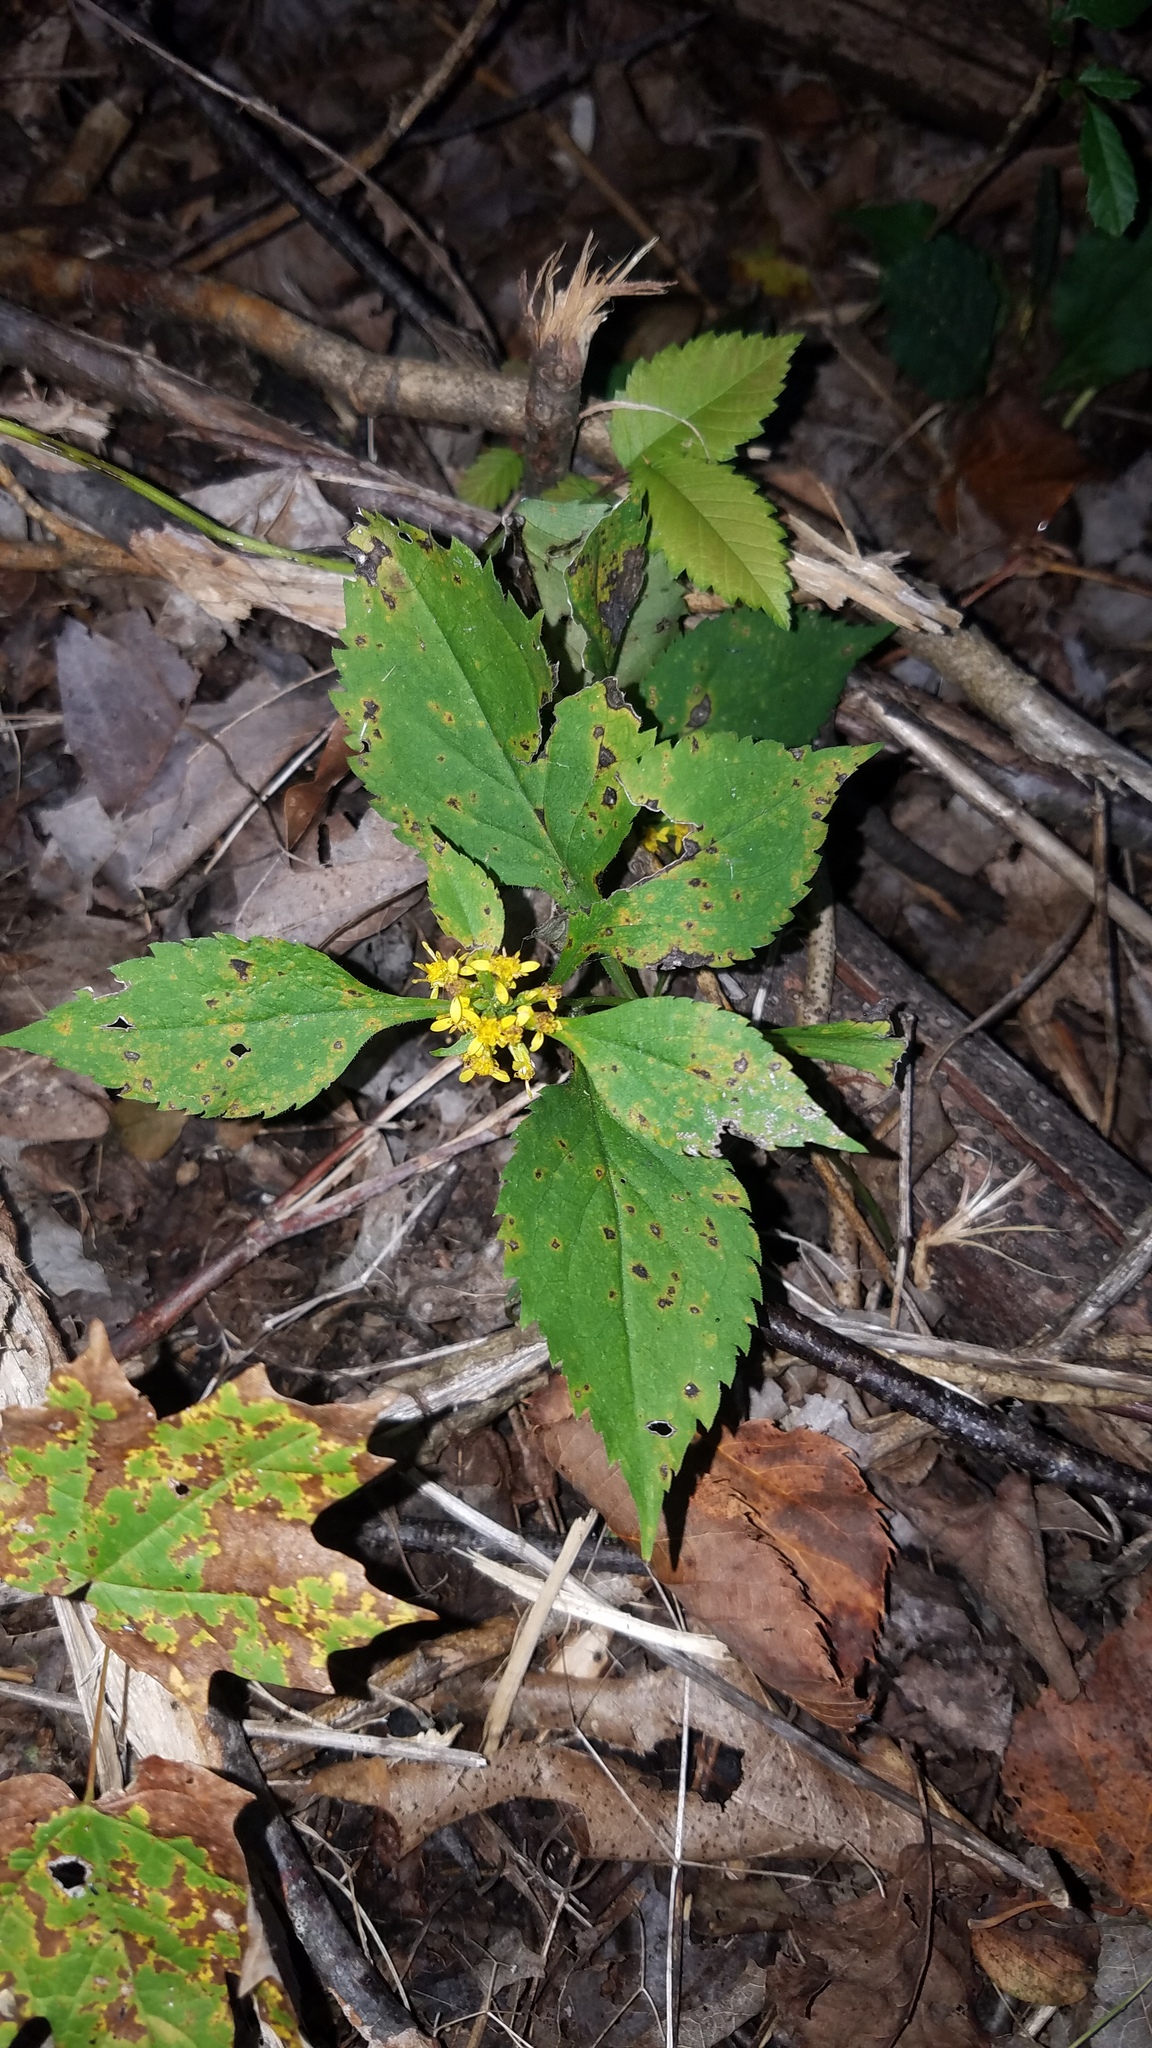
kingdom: Plantae
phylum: Tracheophyta
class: Magnoliopsida
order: Asterales
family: Asteraceae
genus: Solidago
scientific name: Solidago flexicaulis
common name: Zig-zag goldenrod
